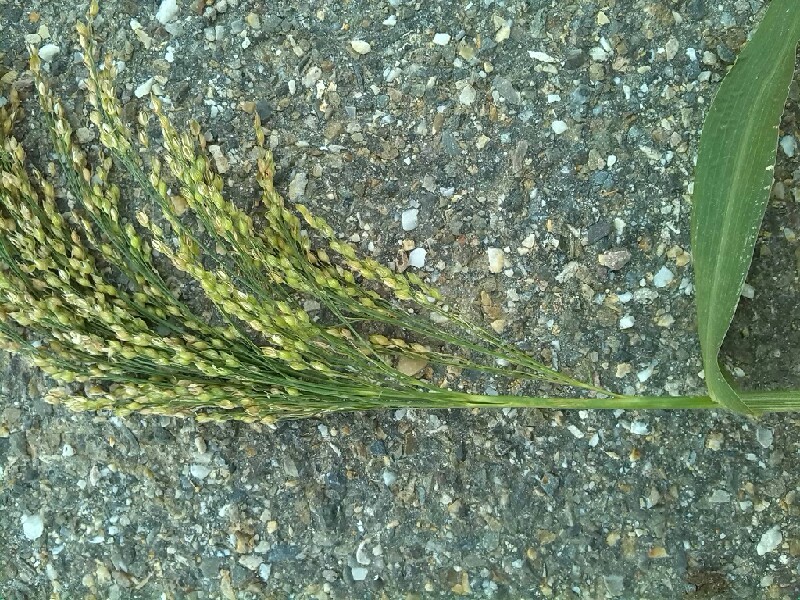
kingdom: Plantae
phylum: Tracheophyta
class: Liliopsida
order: Poales
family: Poaceae
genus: Panicum
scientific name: Panicum miliaceum
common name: Common millet
